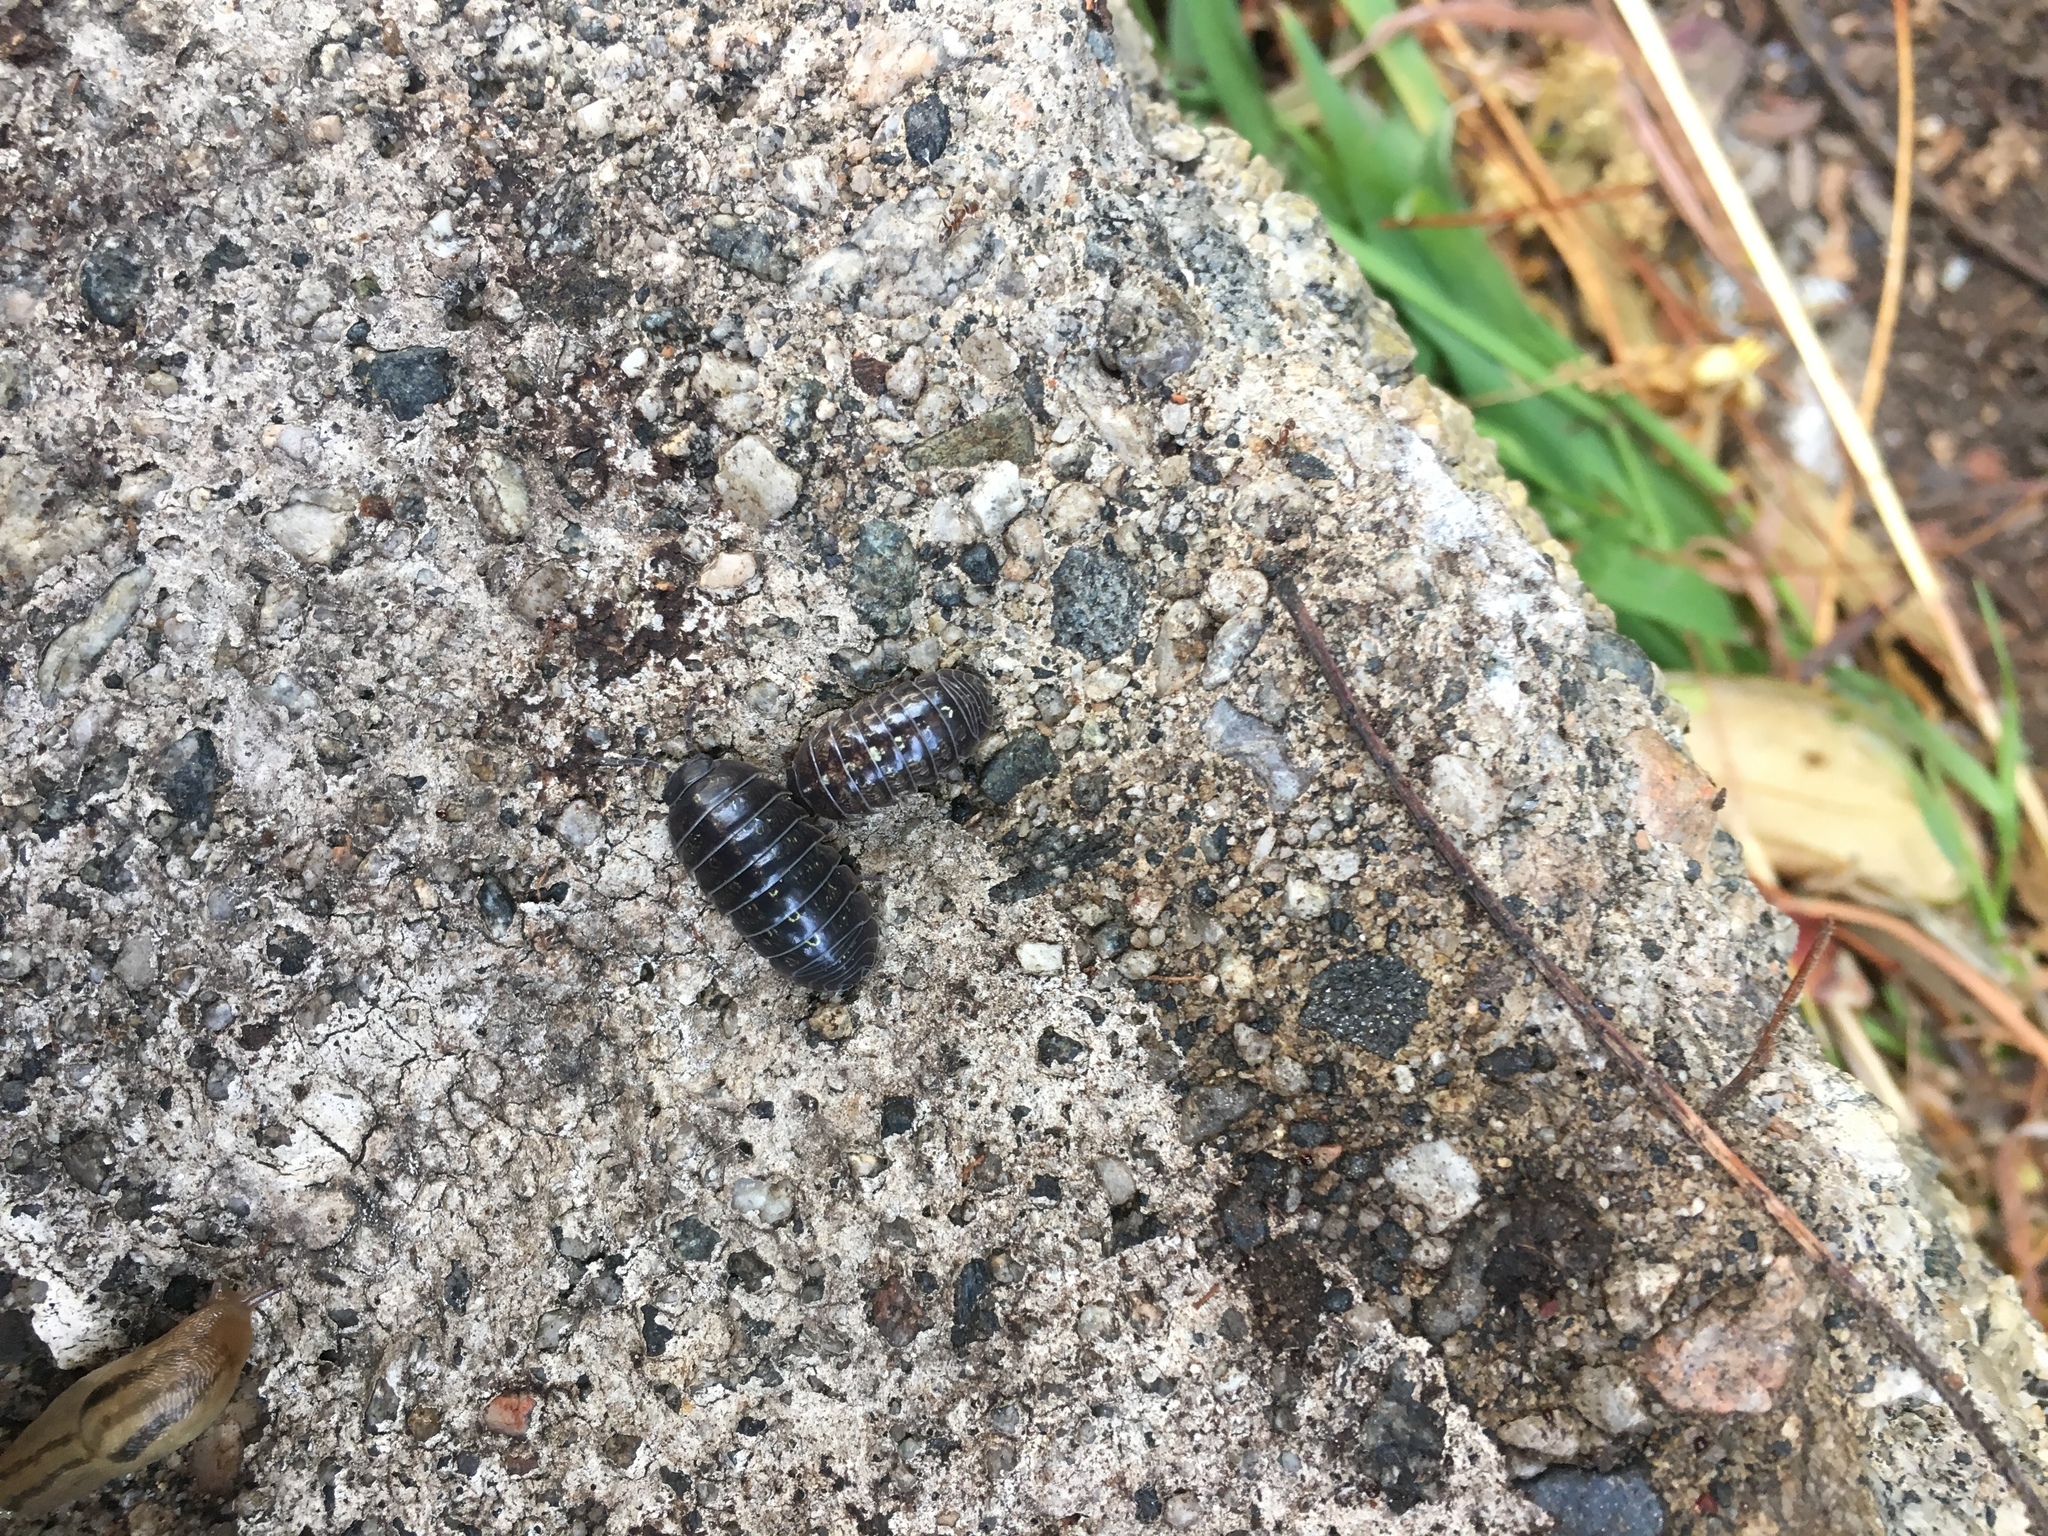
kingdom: Animalia
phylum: Arthropoda
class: Malacostraca
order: Isopoda
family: Armadillidiidae
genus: Armadillidium
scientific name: Armadillidium vulgare
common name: Common pill woodlouse
